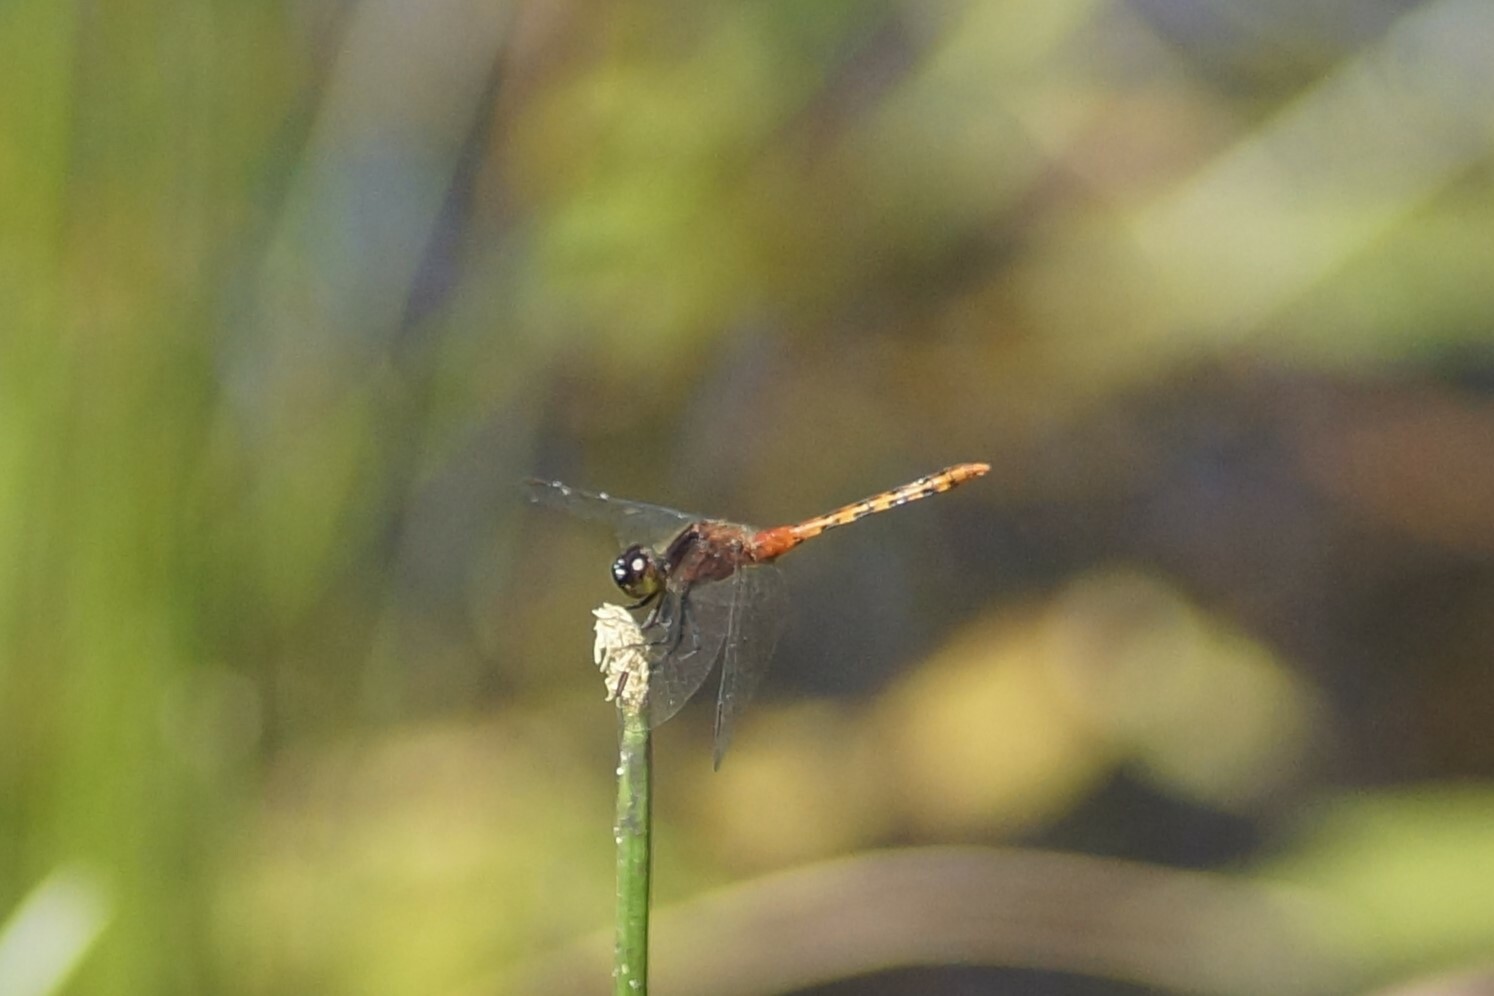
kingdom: Animalia
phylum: Arthropoda
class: Insecta
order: Odonata
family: Libellulidae
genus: Diplacodes
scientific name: Diplacodes melanopsis
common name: Black-faced percher
